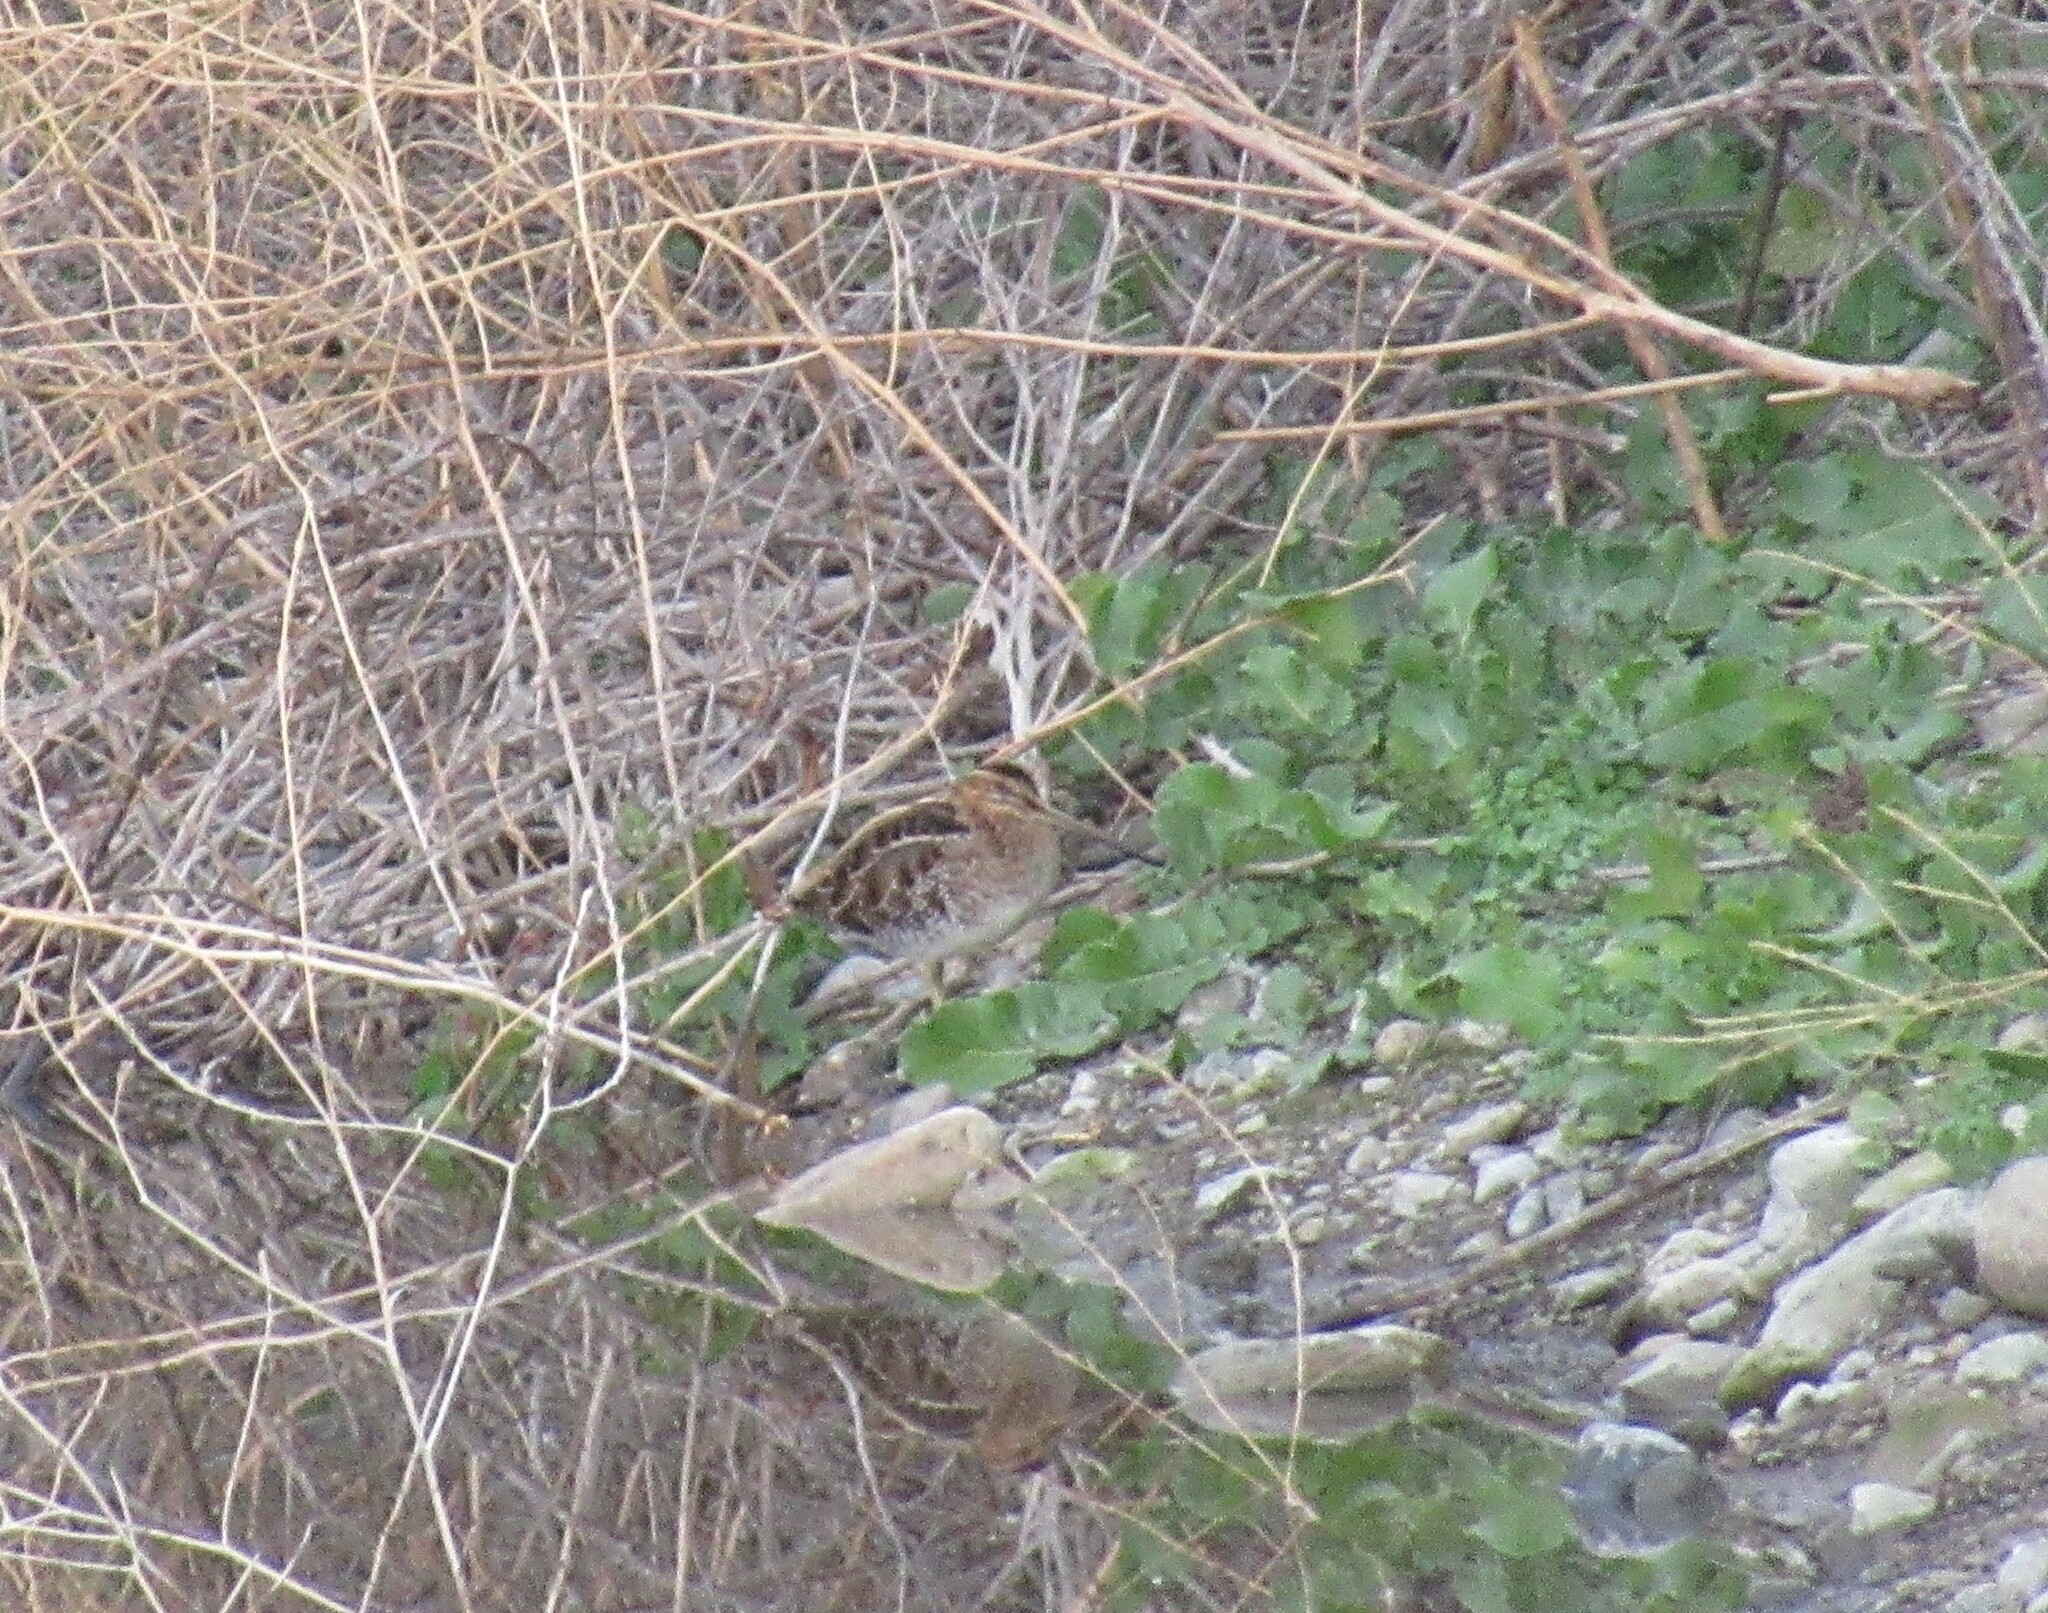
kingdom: Animalia
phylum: Chordata
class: Aves
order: Charadriiformes
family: Scolopacidae
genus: Gallinago
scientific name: Gallinago delicata
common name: Wilson's snipe
